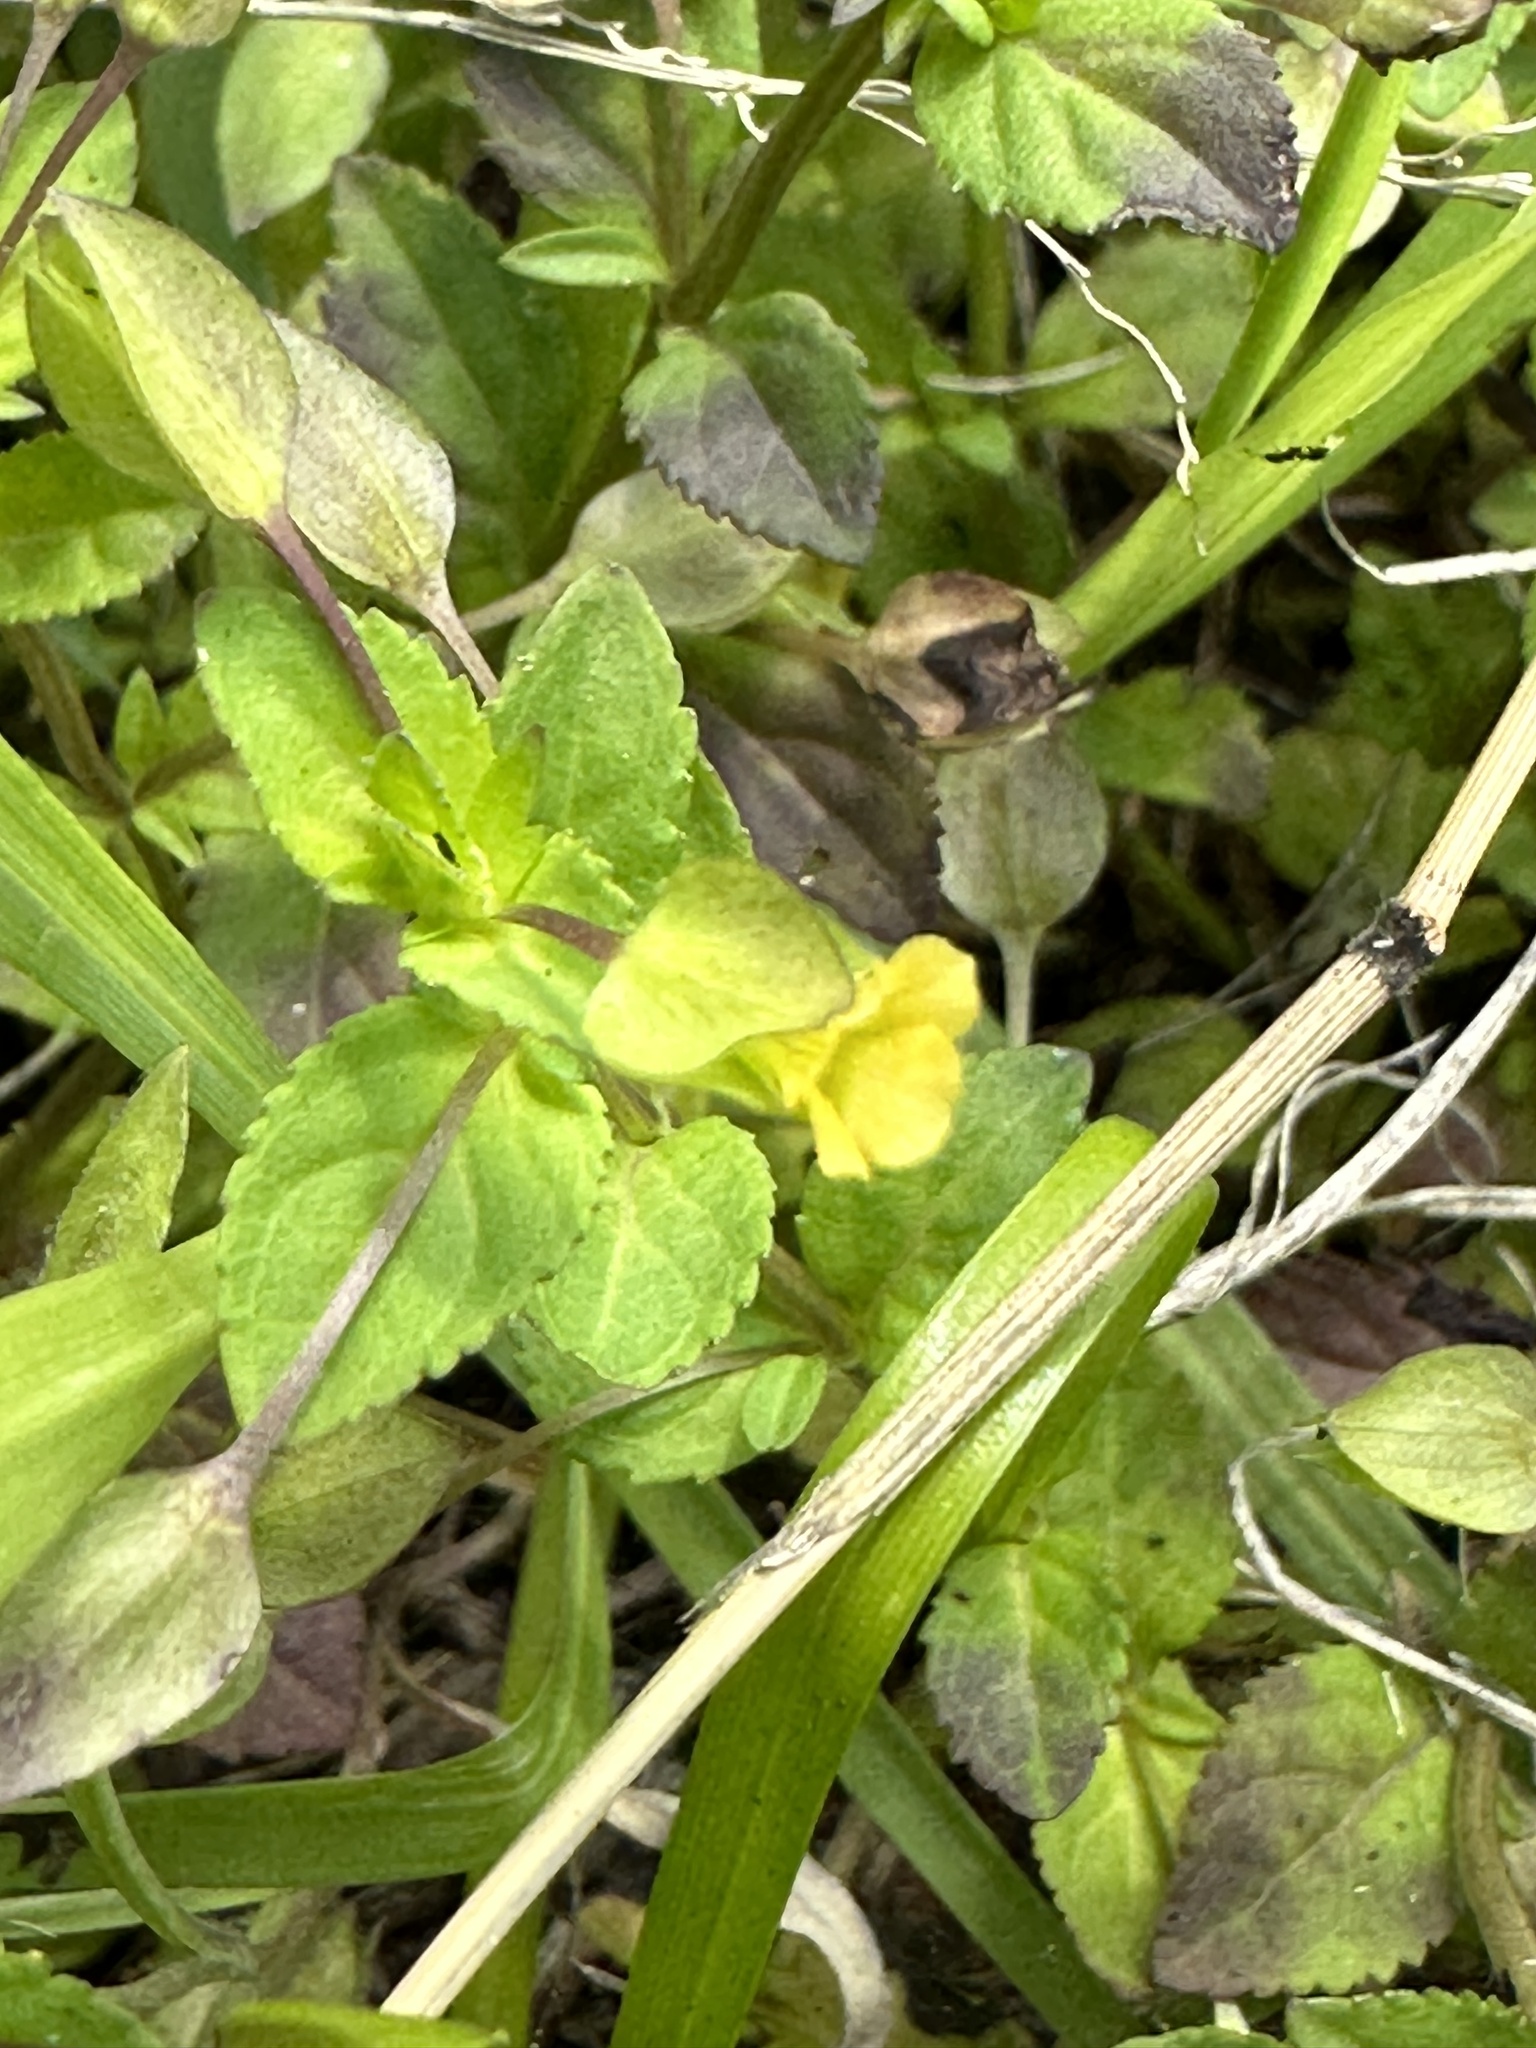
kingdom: Plantae
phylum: Tracheophyta
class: Magnoliopsida
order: Lamiales
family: Plantaginaceae
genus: Mecardonia
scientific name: Mecardonia procumbens
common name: Baby jump-up
